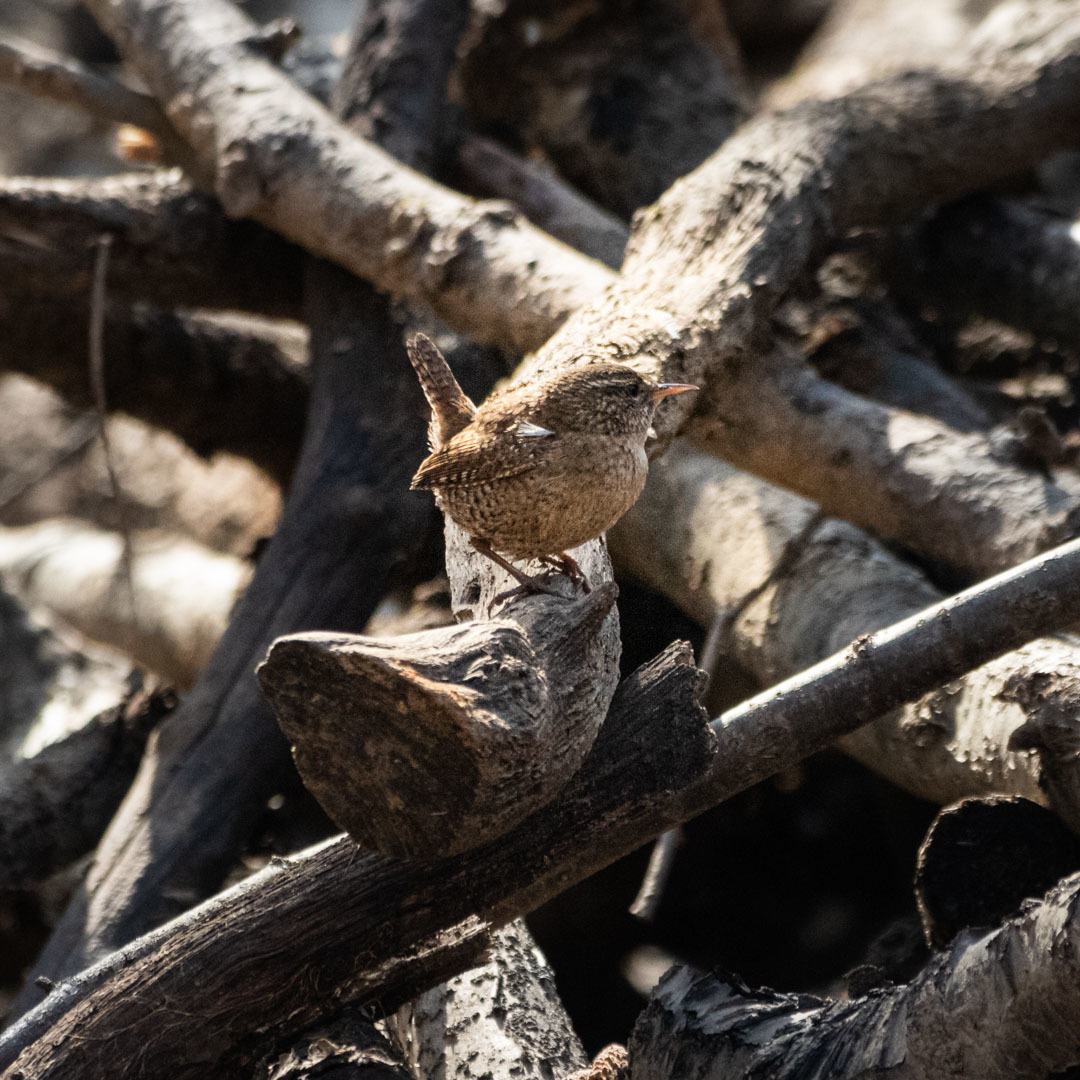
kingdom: Animalia
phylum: Chordata
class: Aves
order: Passeriformes
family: Troglodytidae
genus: Troglodytes
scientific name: Troglodytes troglodytes
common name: Eurasian wren
